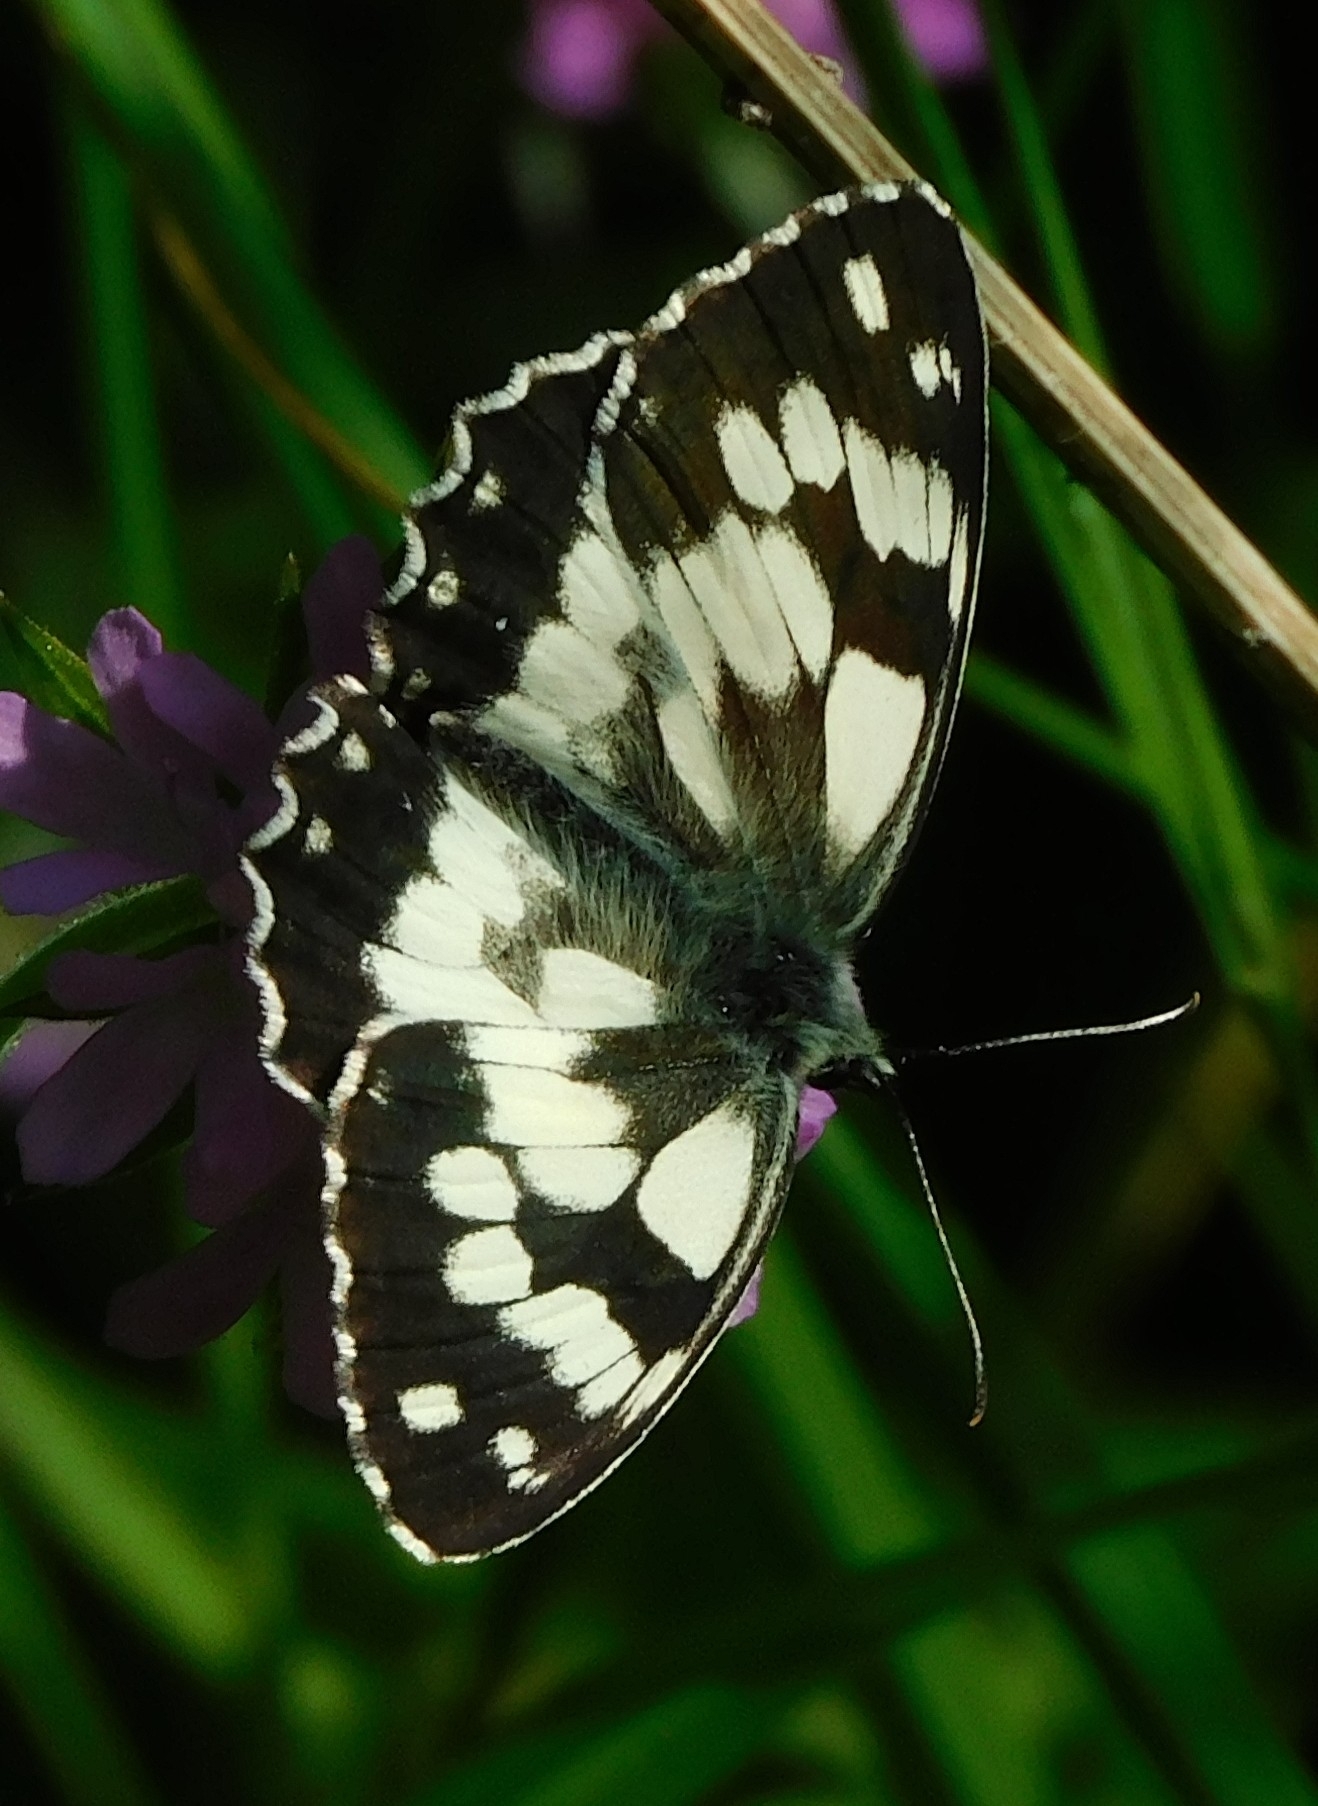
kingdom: Animalia
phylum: Arthropoda
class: Insecta
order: Lepidoptera
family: Nymphalidae
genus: Melanargia
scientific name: Melanargia galathea
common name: Marbled white
